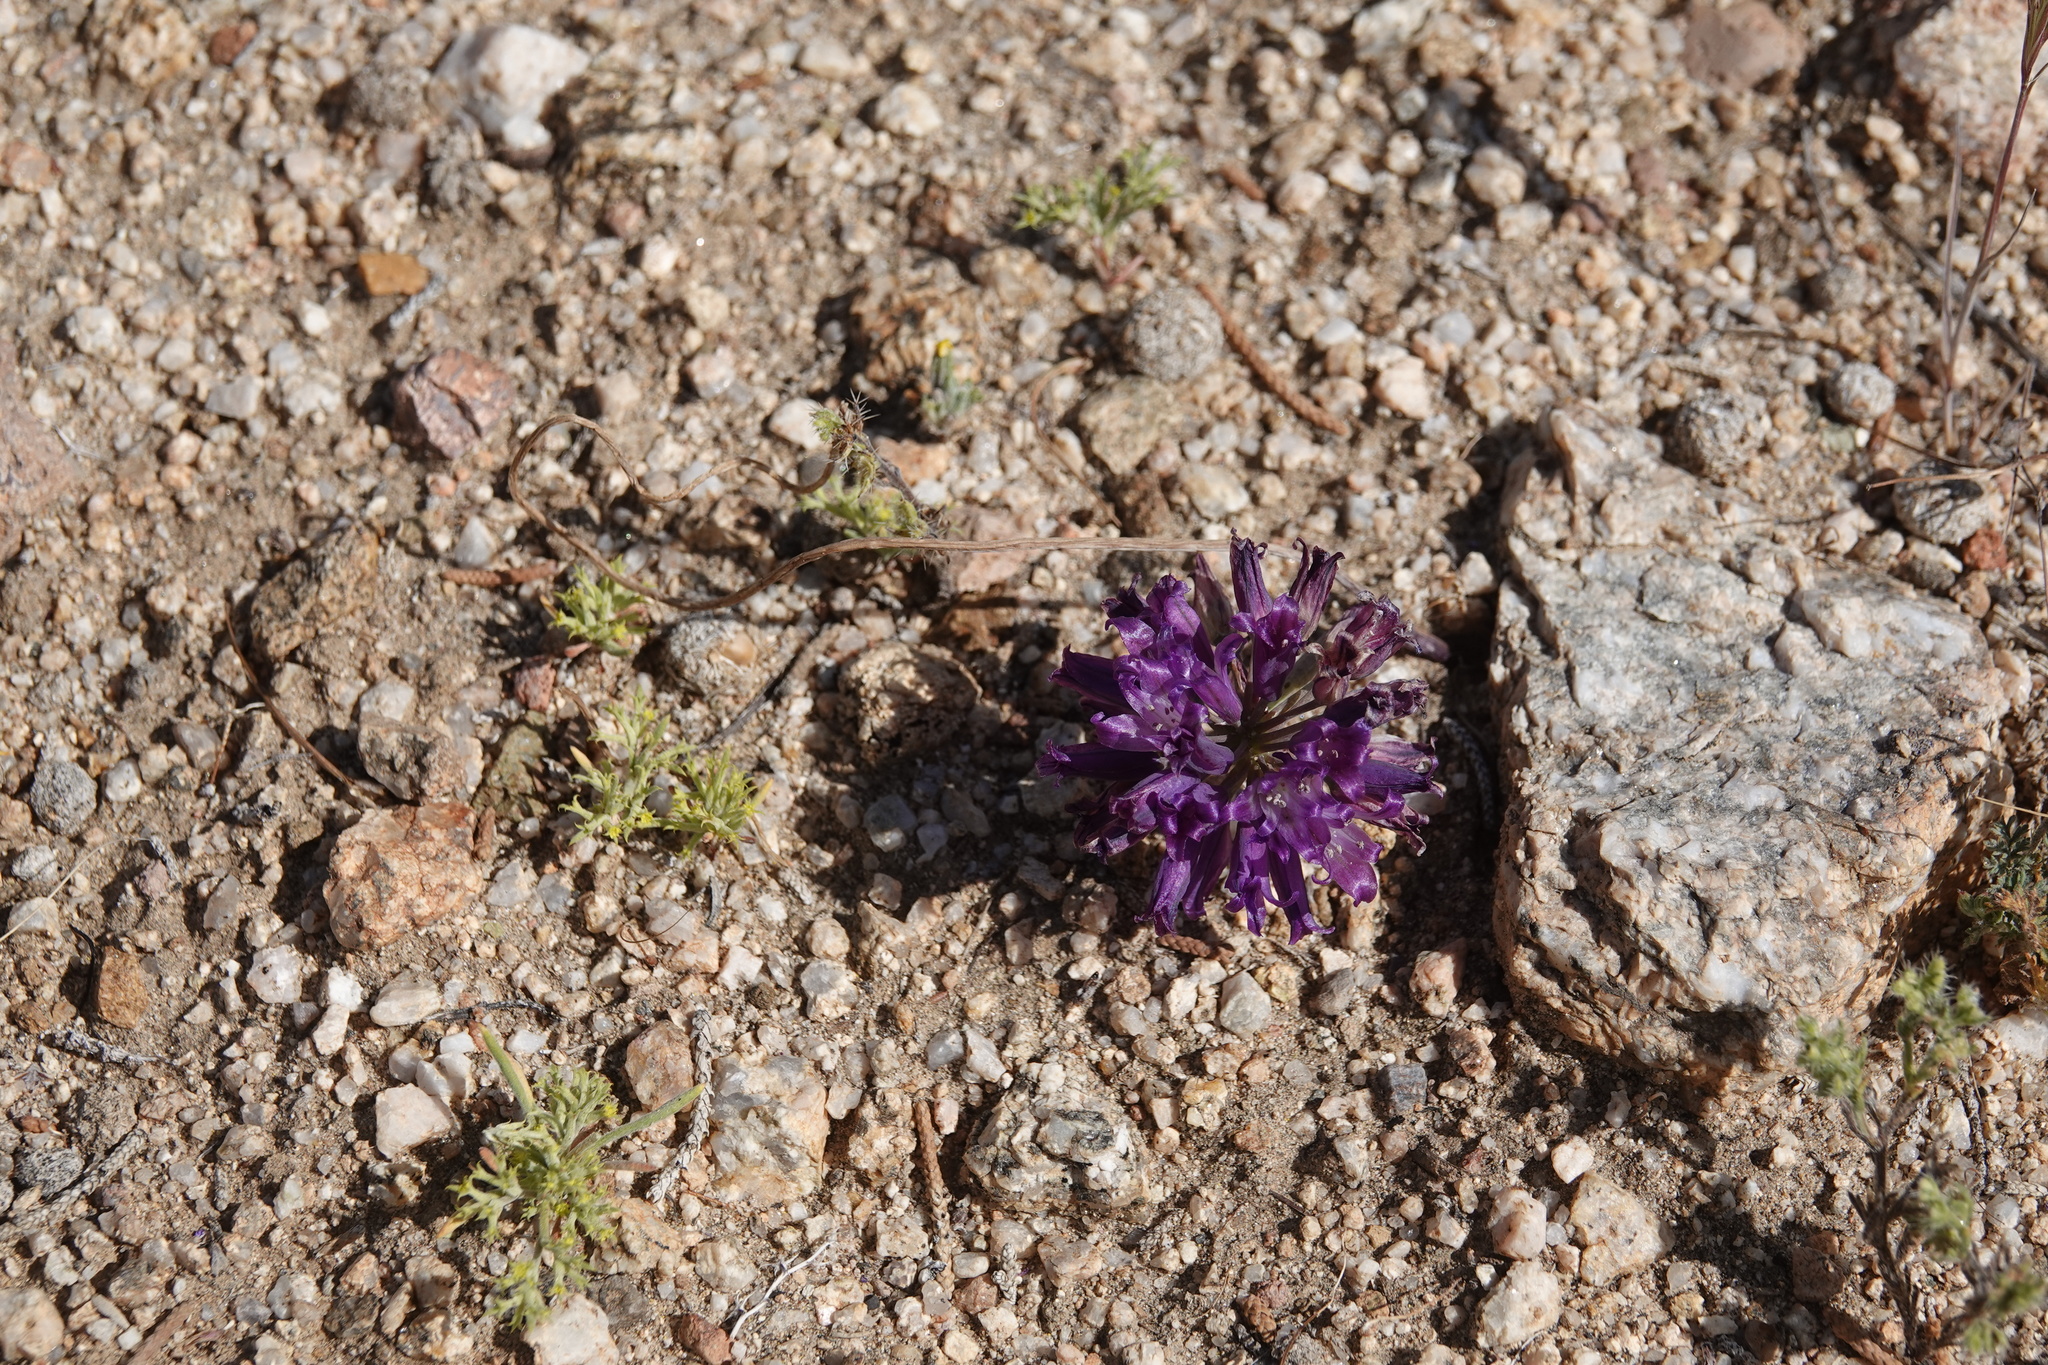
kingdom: Plantae
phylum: Tracheophyta
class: Liliopsida
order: Asparagales
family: Amaryllidaceae
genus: Allium
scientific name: Allium fimbriatum
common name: Fringed onion
